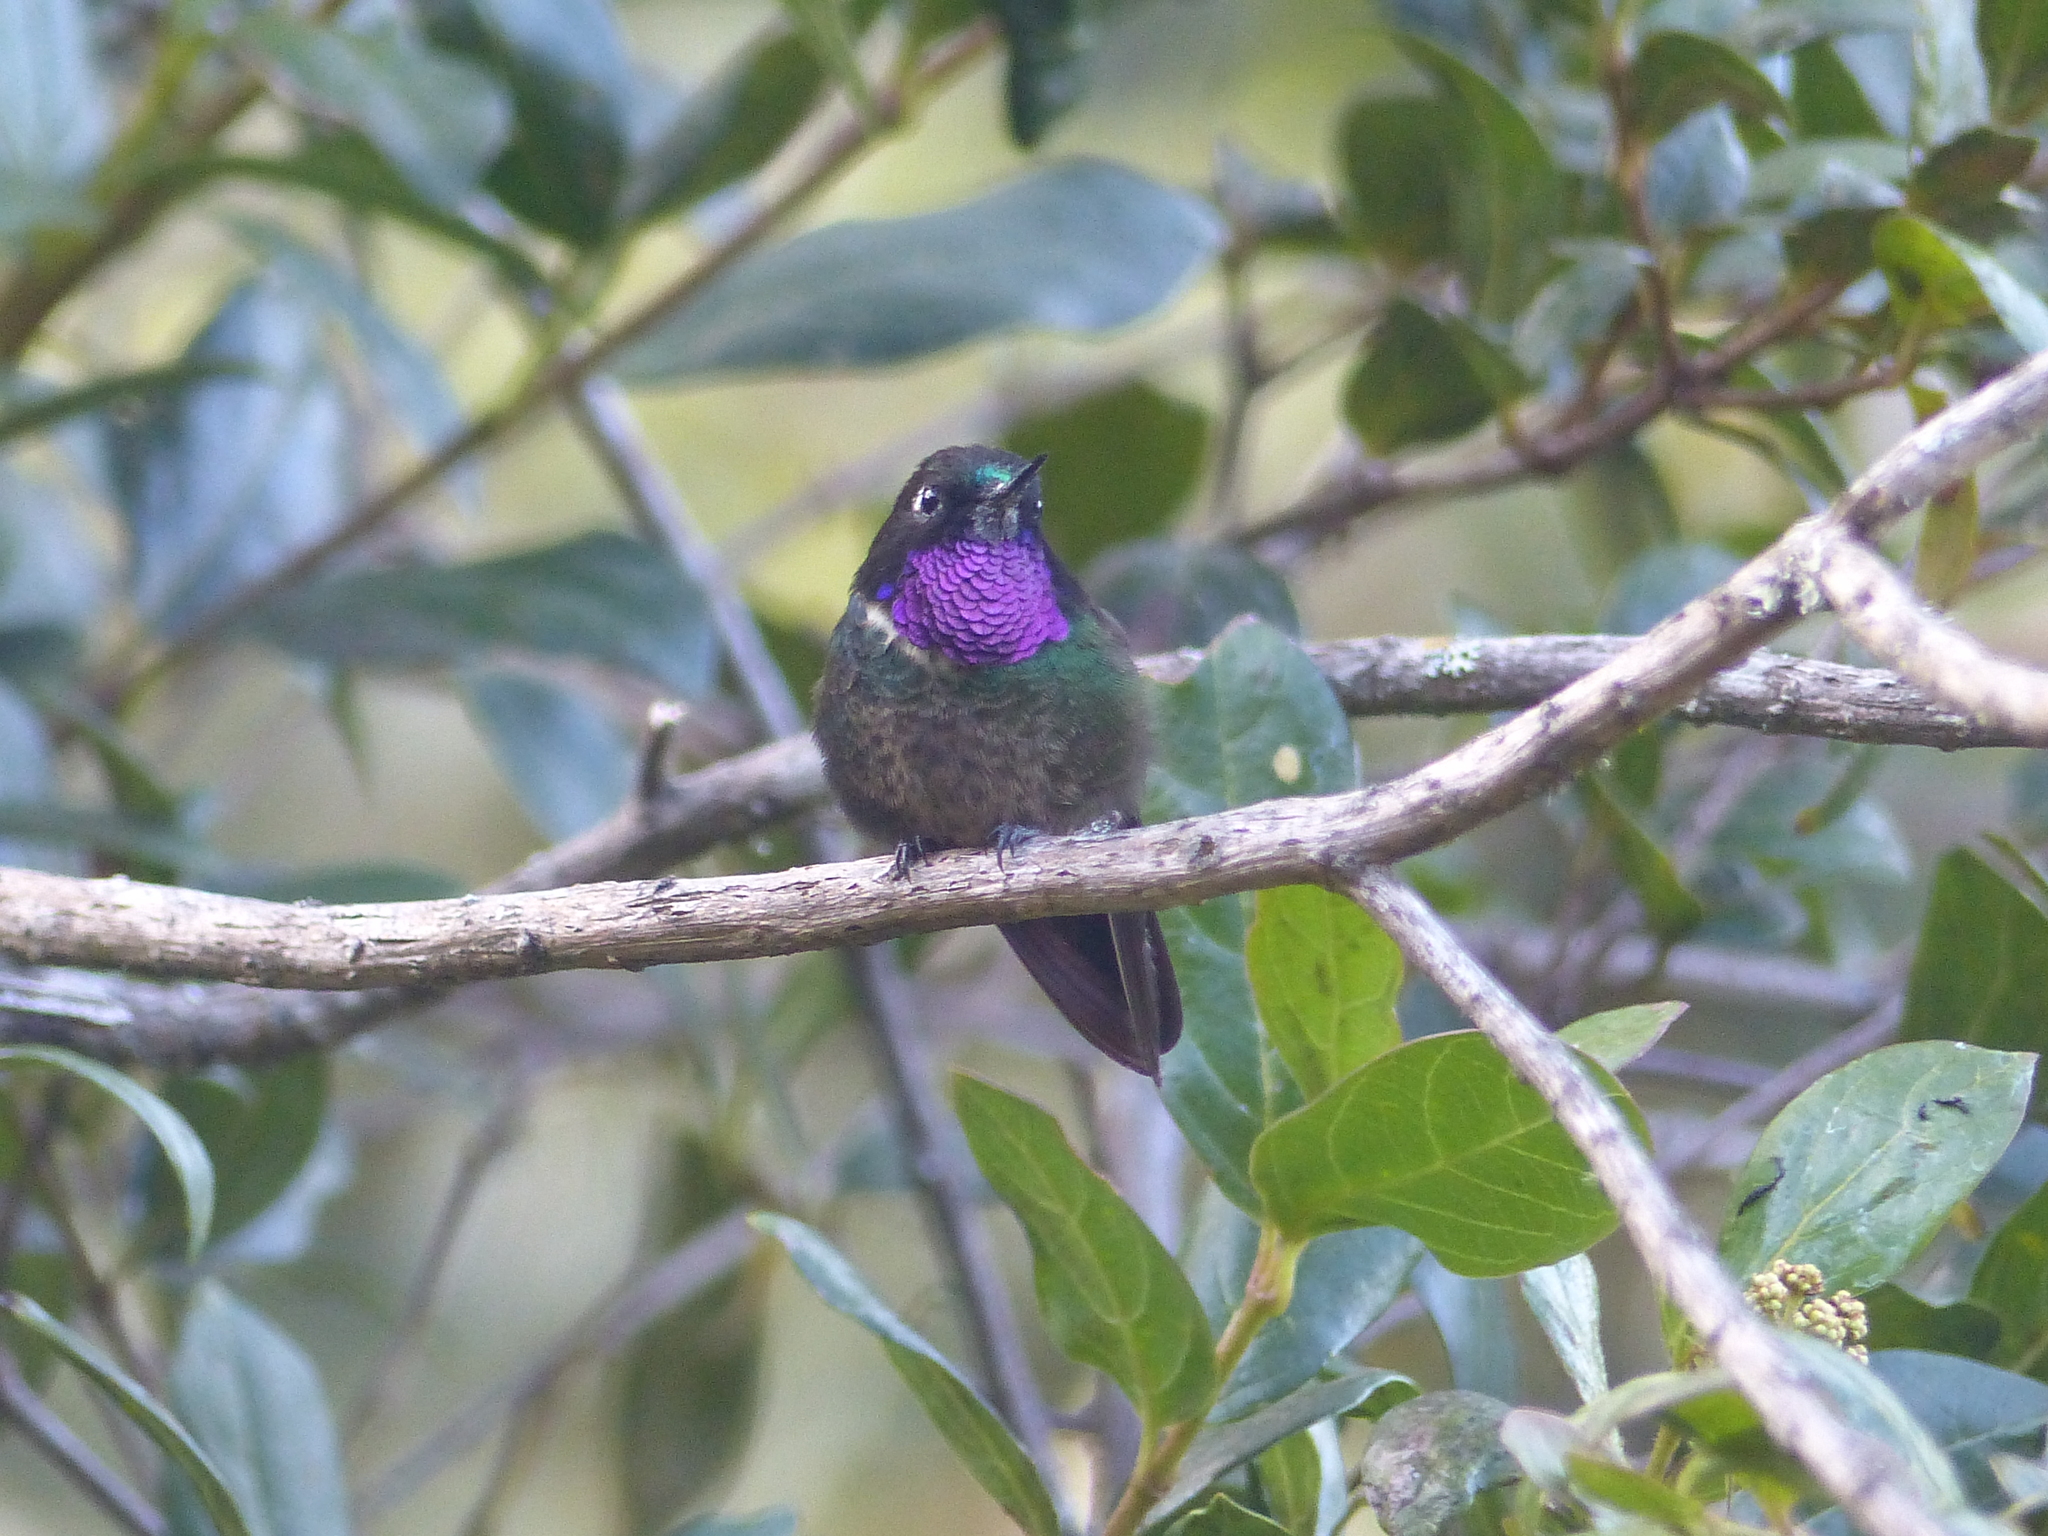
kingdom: Animalia
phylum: Chordata
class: Aves
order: Apodiformes
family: Trochilidae
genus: Heliangelus
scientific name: Heliangelus clarisse
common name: Longuemare's sunangel
